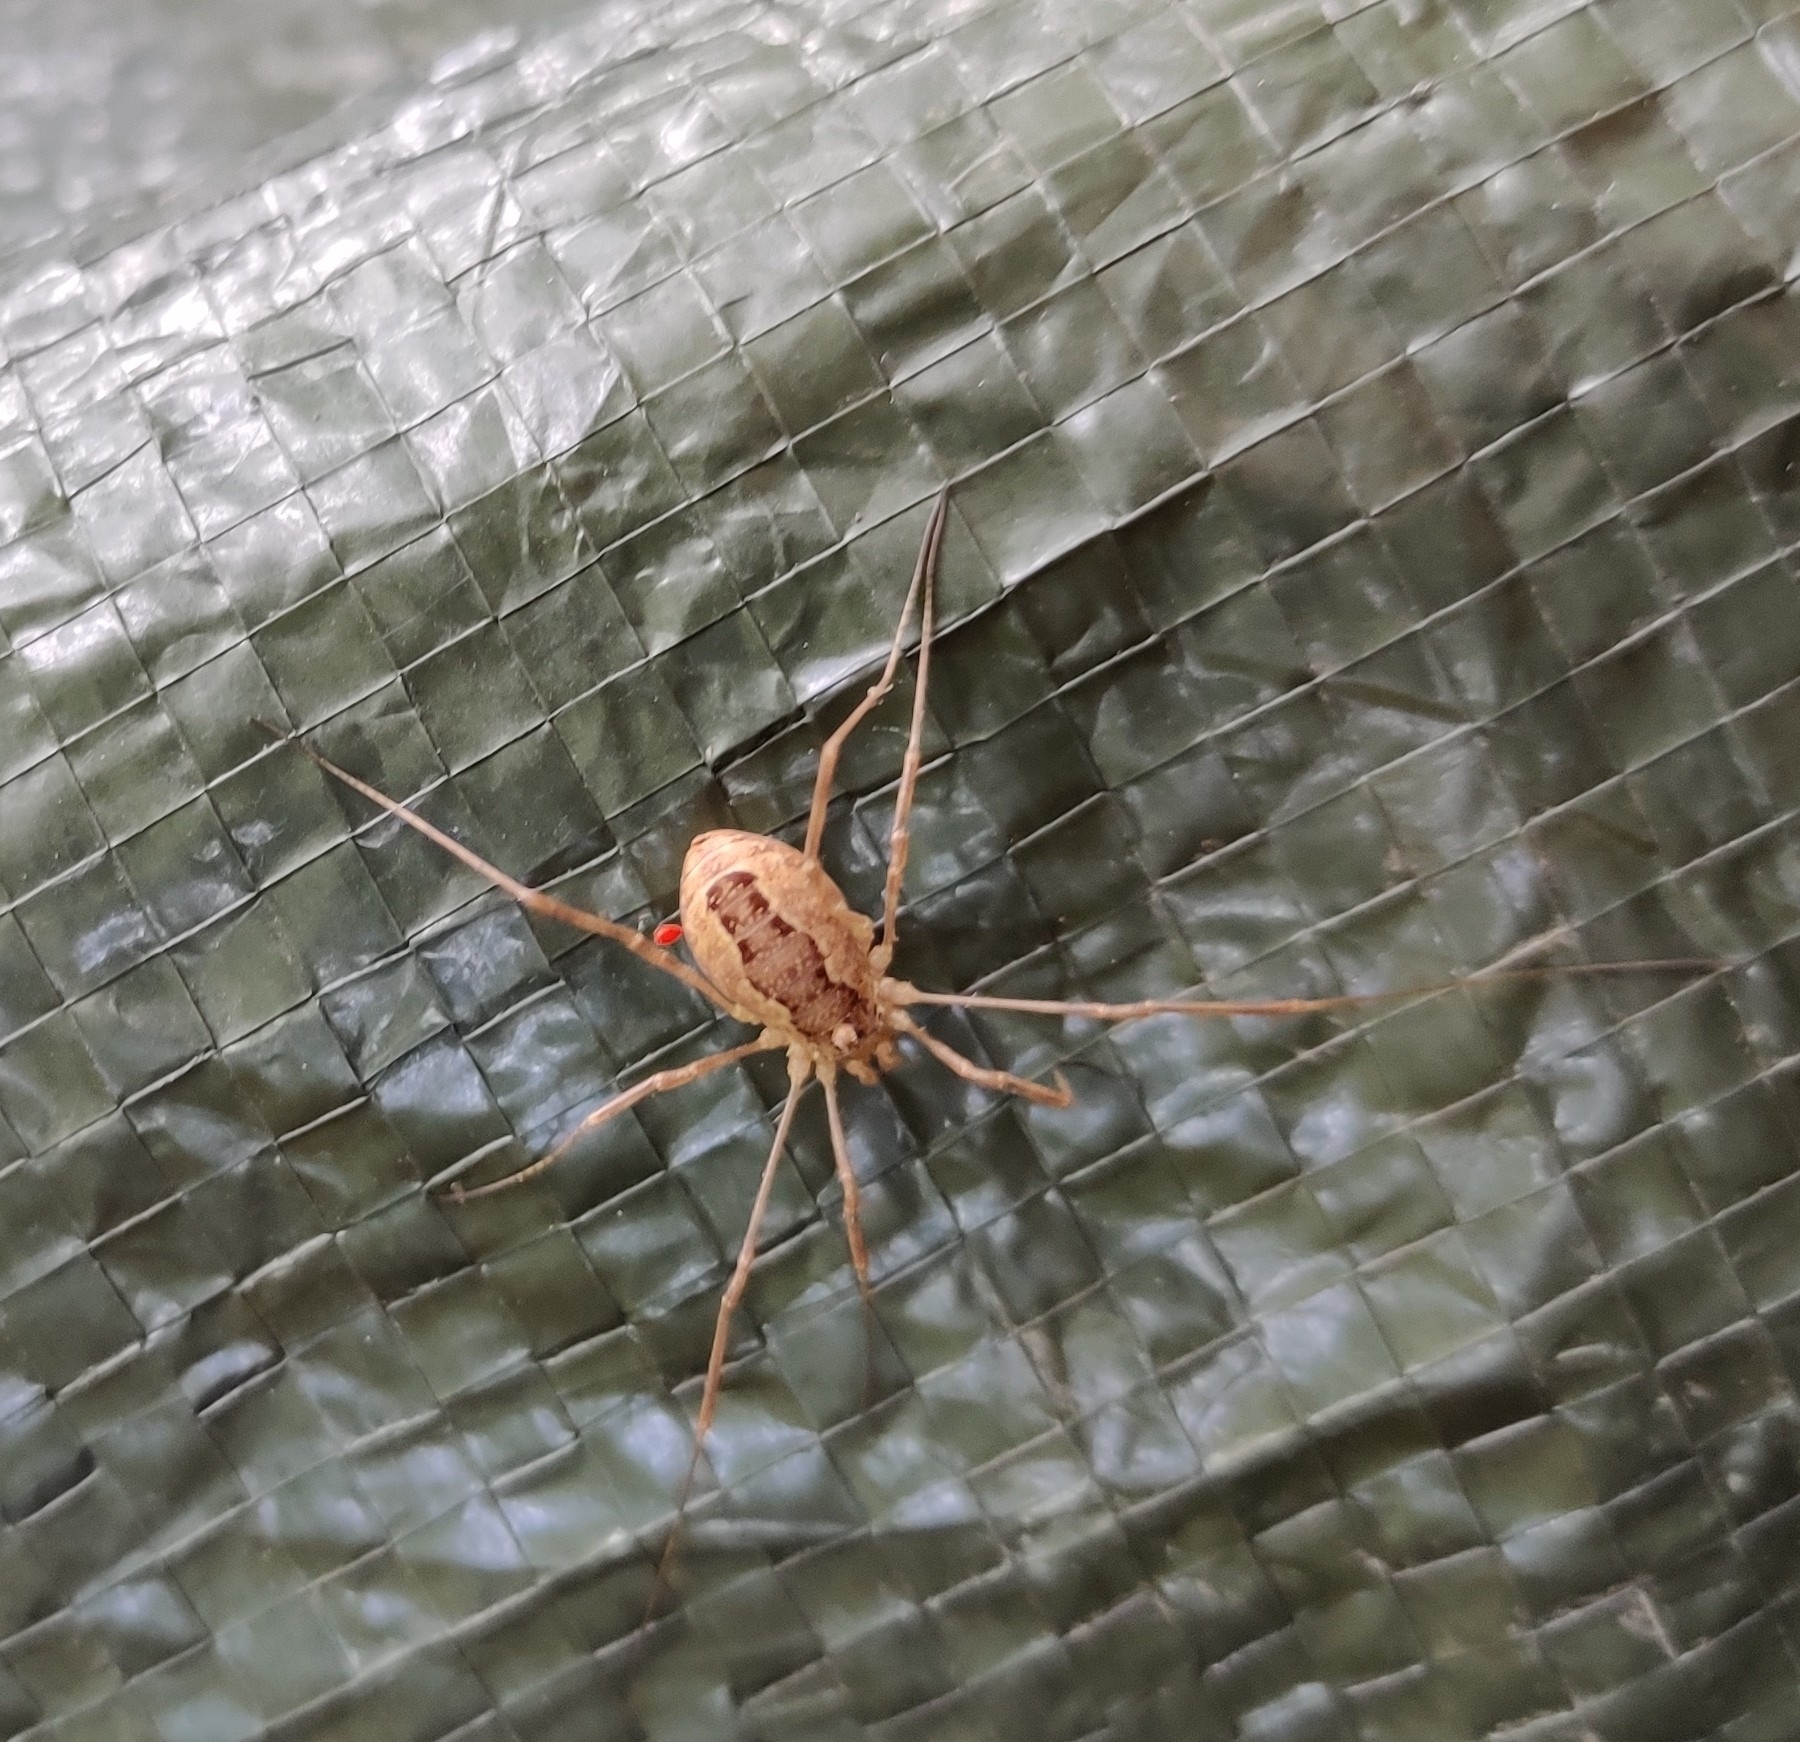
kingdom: Animalia
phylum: Arthropoda
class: Arachnida
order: Opiliones
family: Phalangiidae
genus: Rilaena
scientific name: Rilaena triangularis
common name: Spring harvestman
